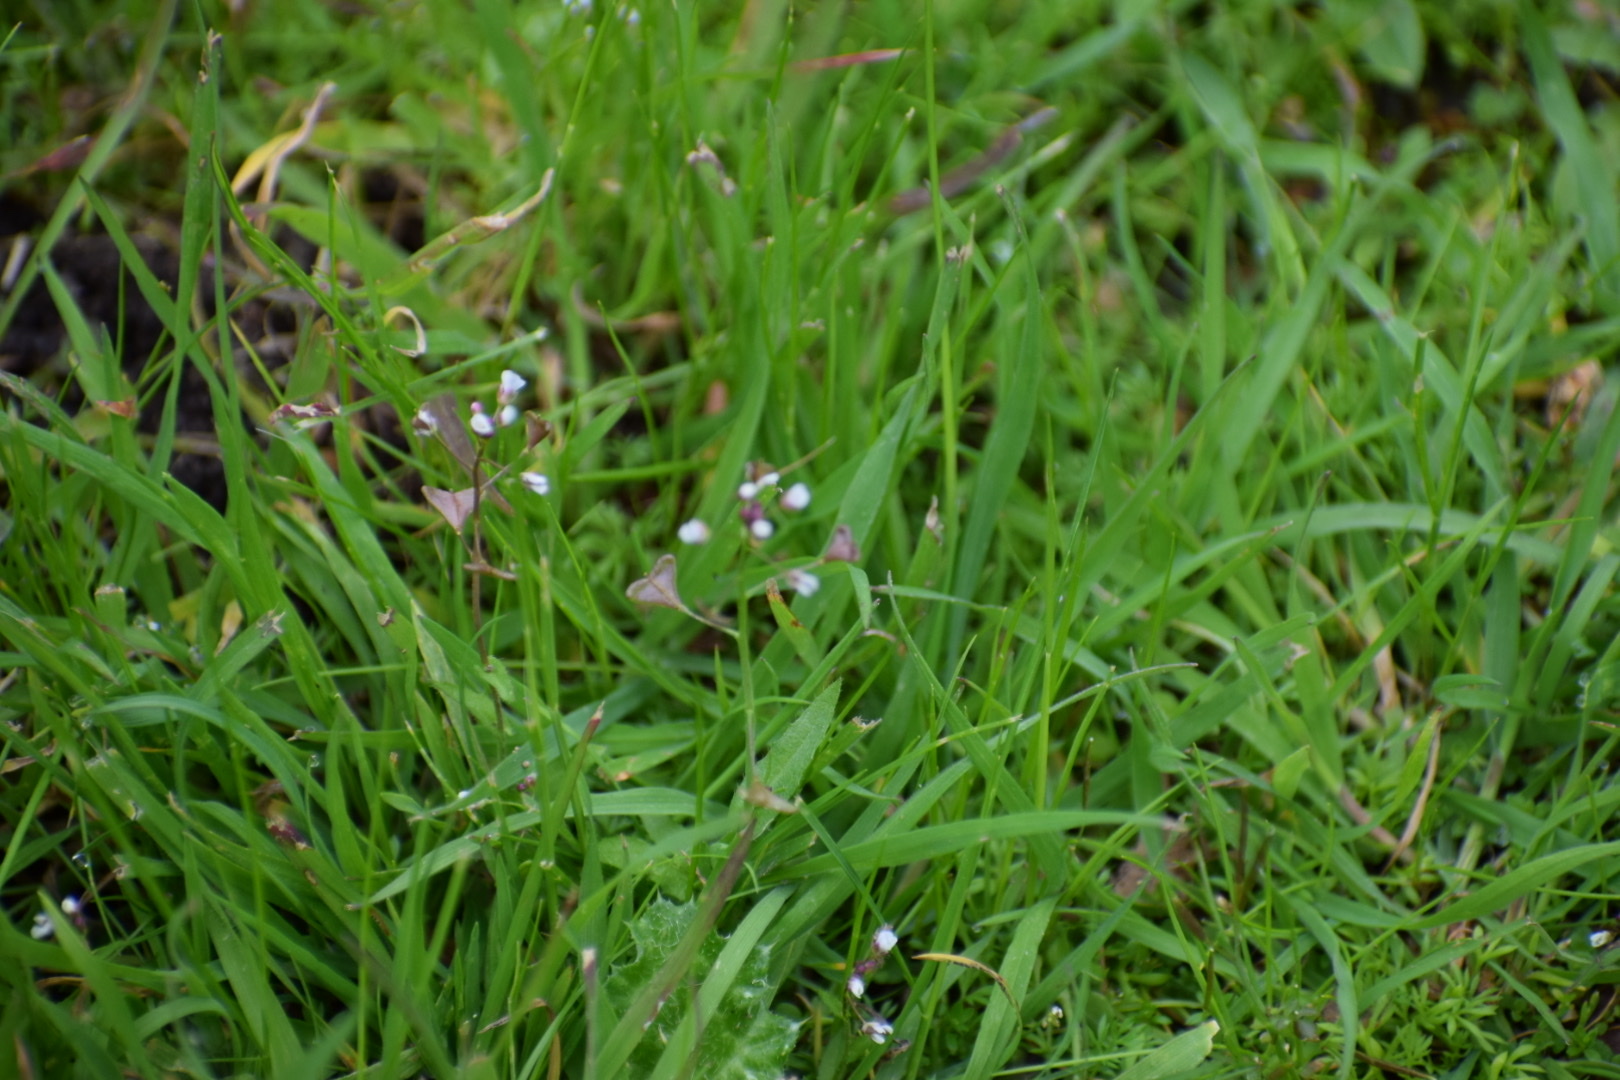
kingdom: Plantae
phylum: Tracheophyta
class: Magnoliopsida
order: Brassicales
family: Brassicaceae
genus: Capsella
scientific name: Capsella bursa-pastoris
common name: Shepherd's purse
